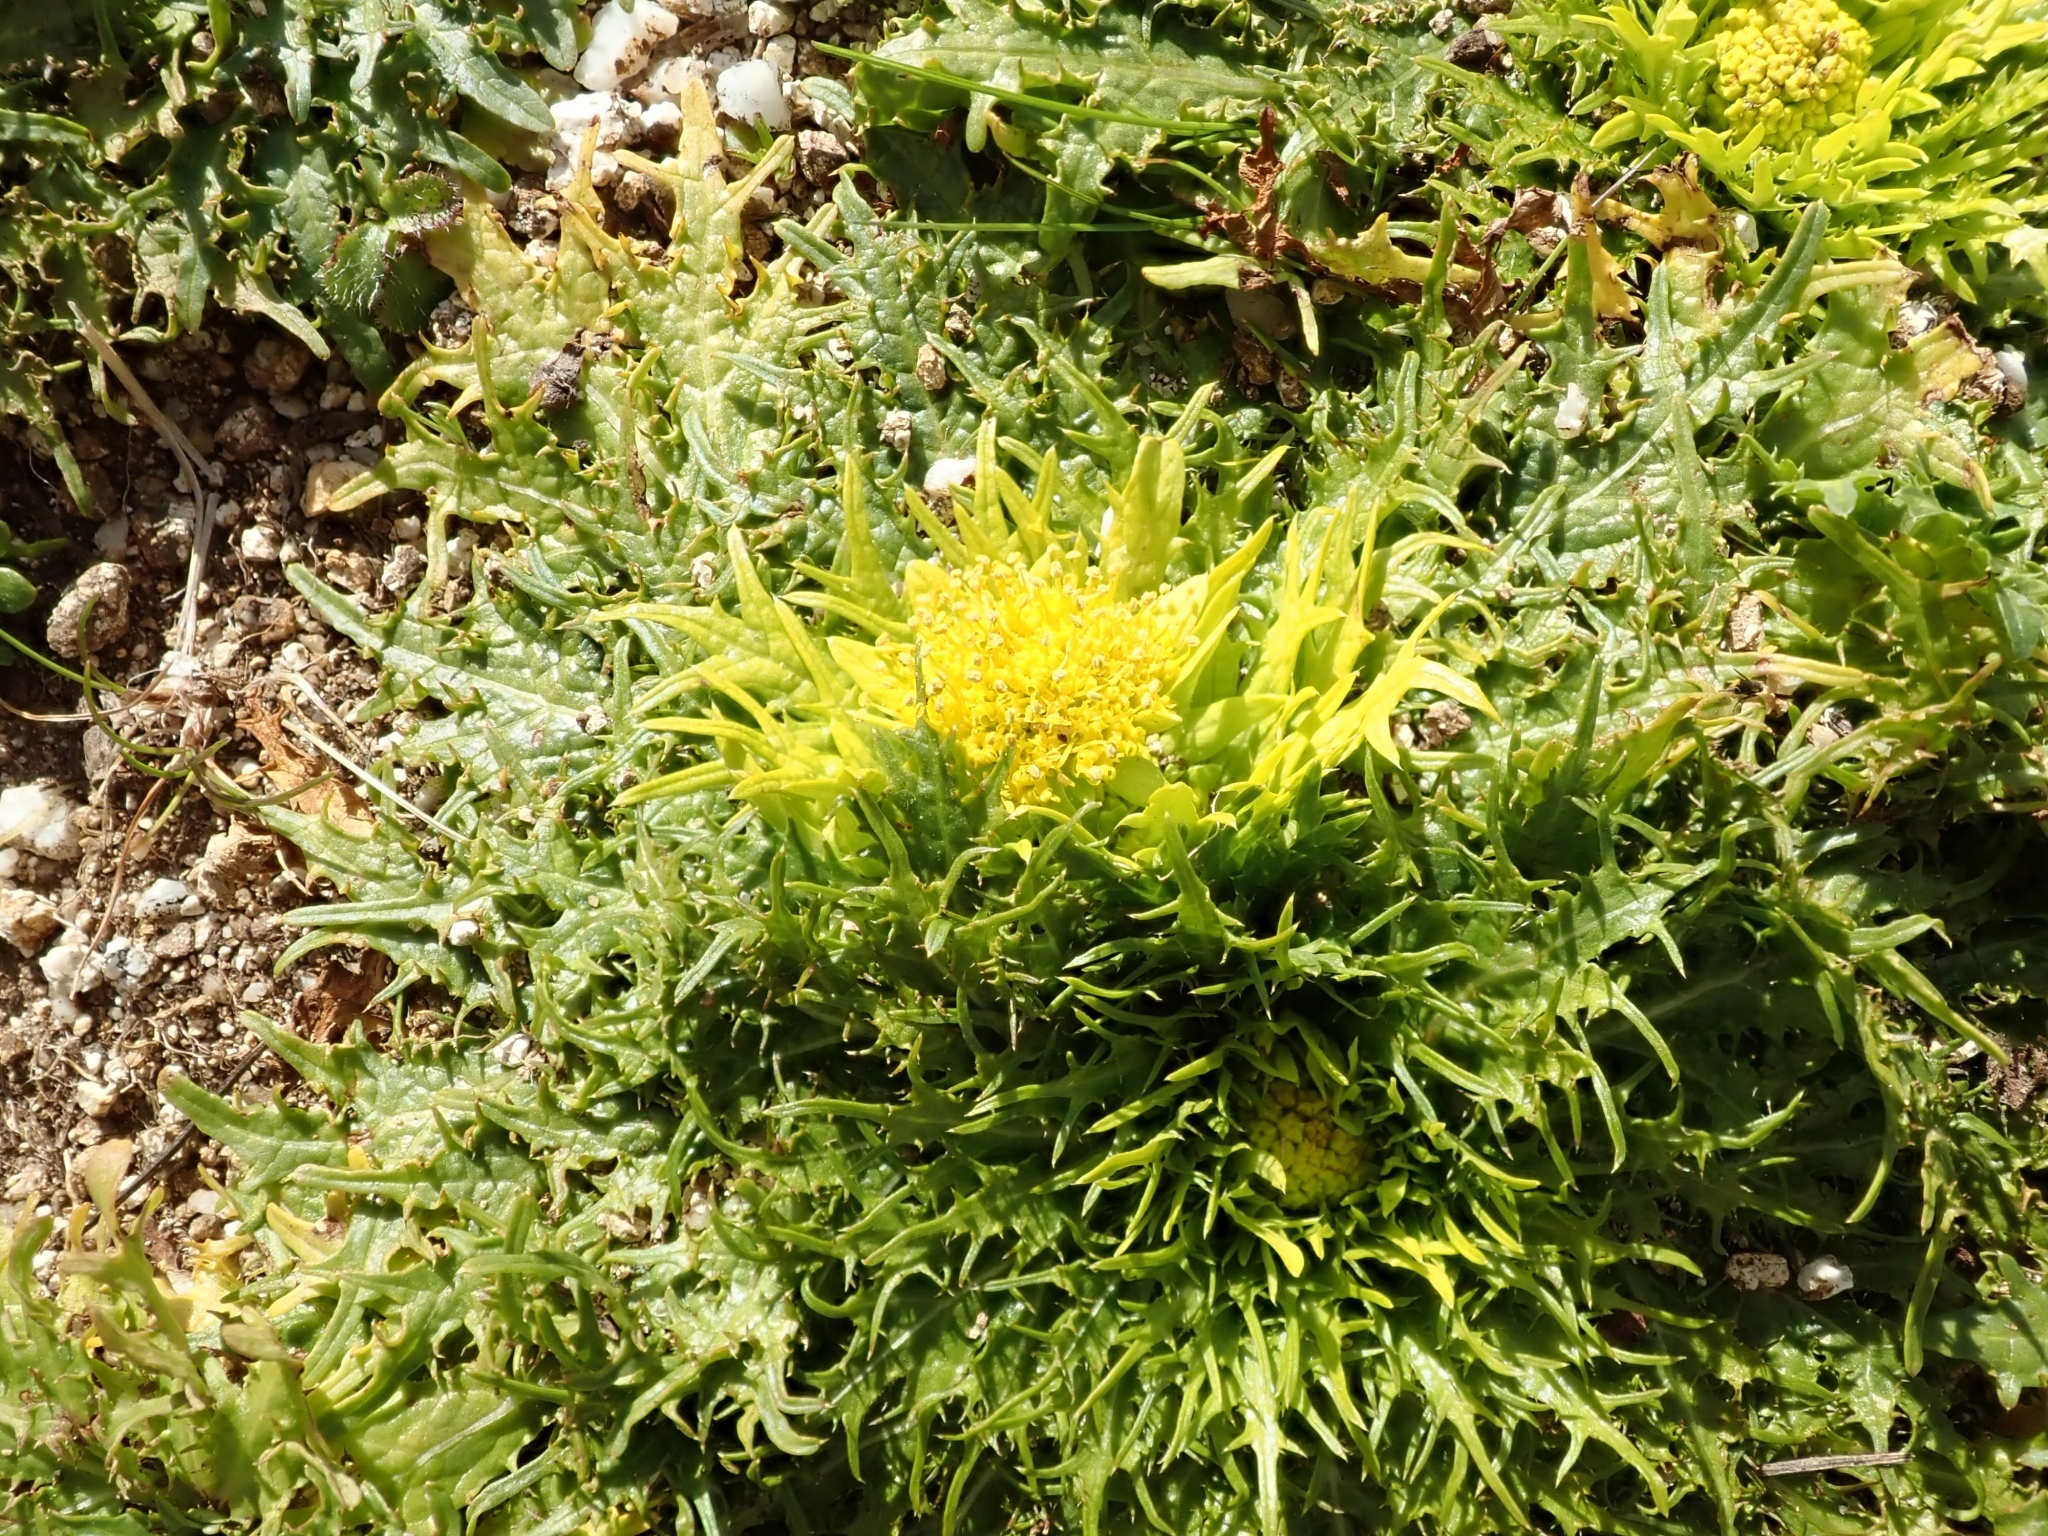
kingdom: Plantae
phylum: Tracheophyta
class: Magnoliopsida
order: Apiales
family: Apiaceae
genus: Sanicula
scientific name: Sanicula arctopoides
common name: Footsteps-of-spring
